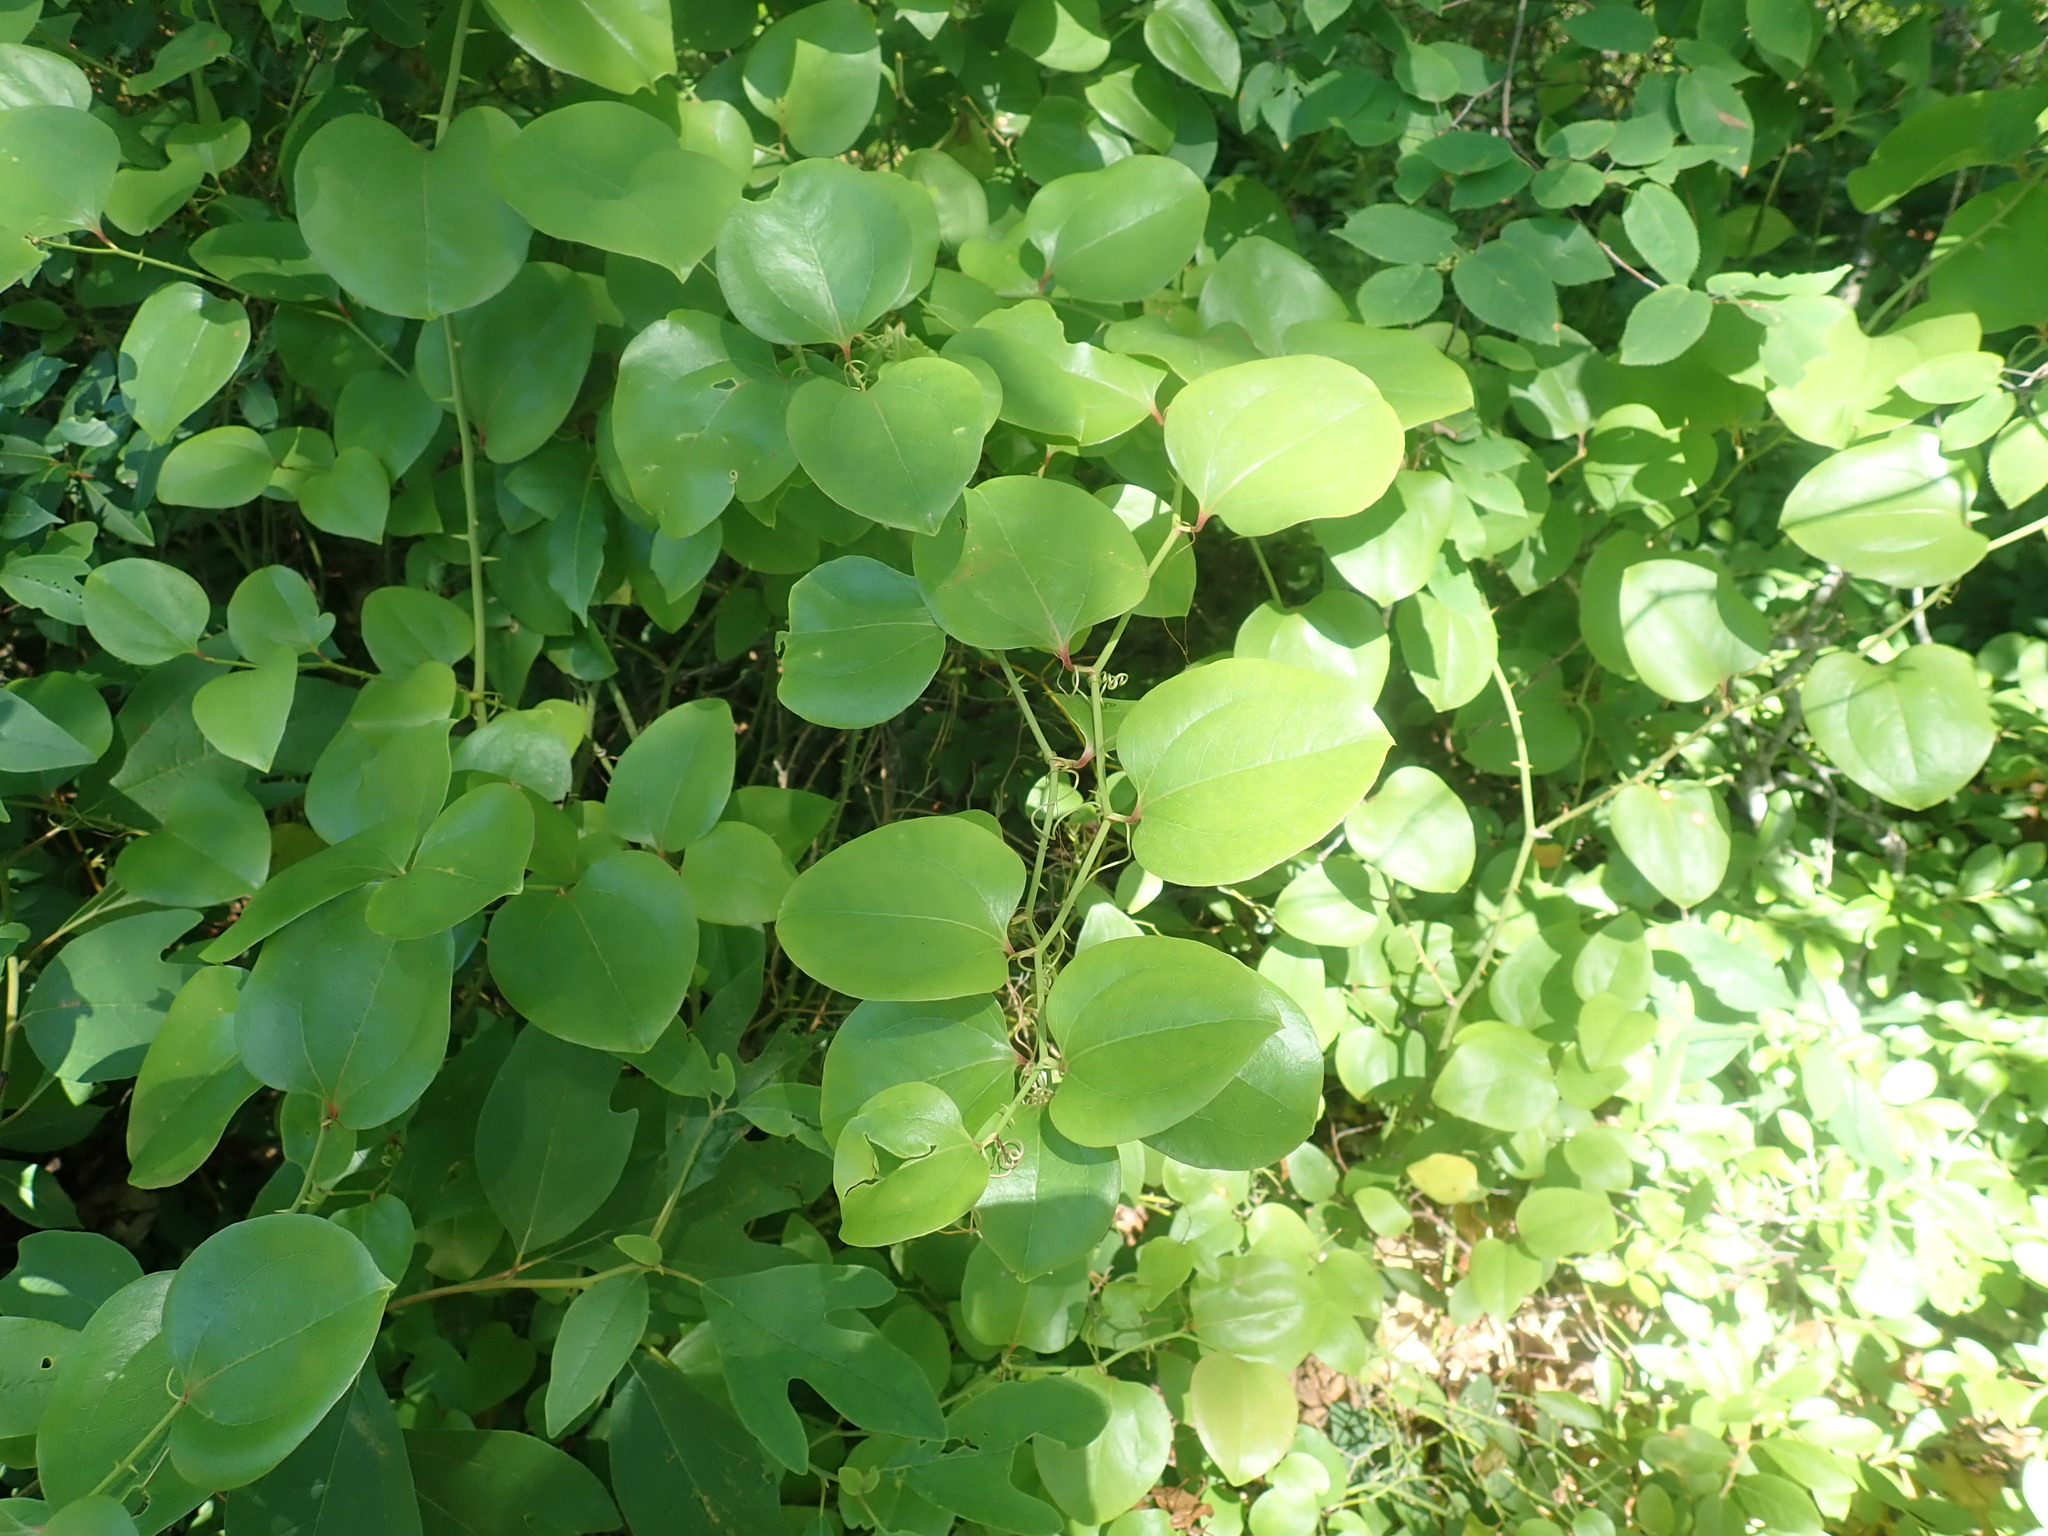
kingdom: Plantae
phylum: Tracheophyta
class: Liliopsida
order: Liliales
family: Smilacaceae
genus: Smilax
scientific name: Smilax rotundifolia
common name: Bullbriar
